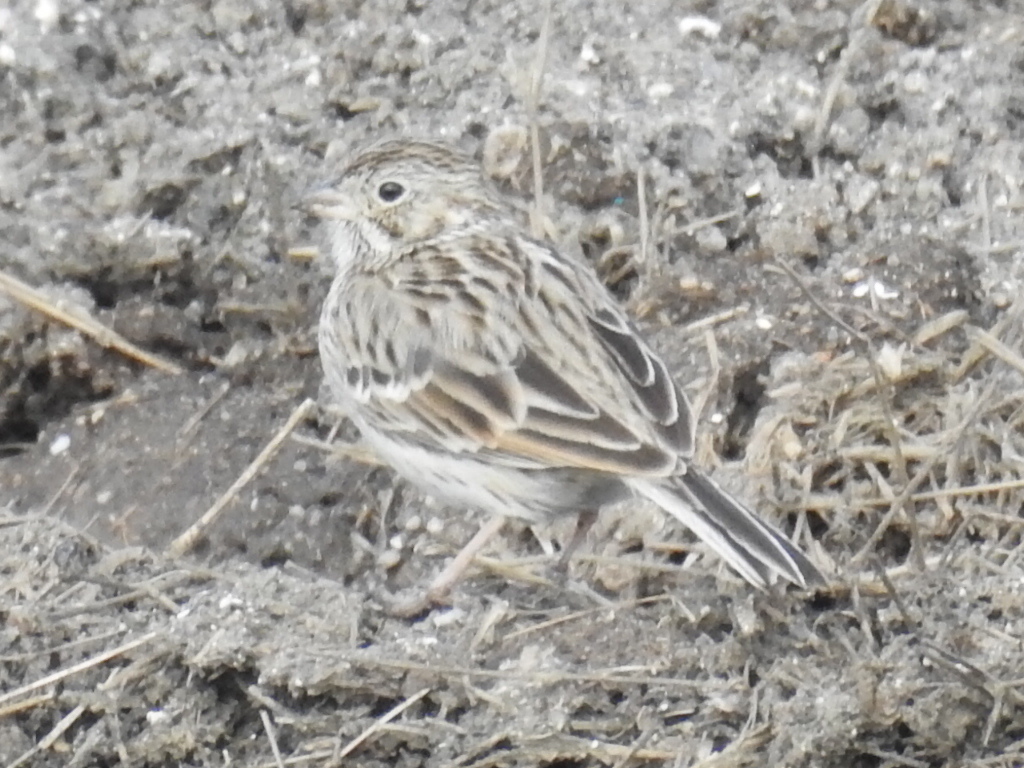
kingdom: Animalia
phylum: Chordata
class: Aves
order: Passeriformes
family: Passerellidae
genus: Pooecetes
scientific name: Pooecetes gramineus
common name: Vesper sparrow
